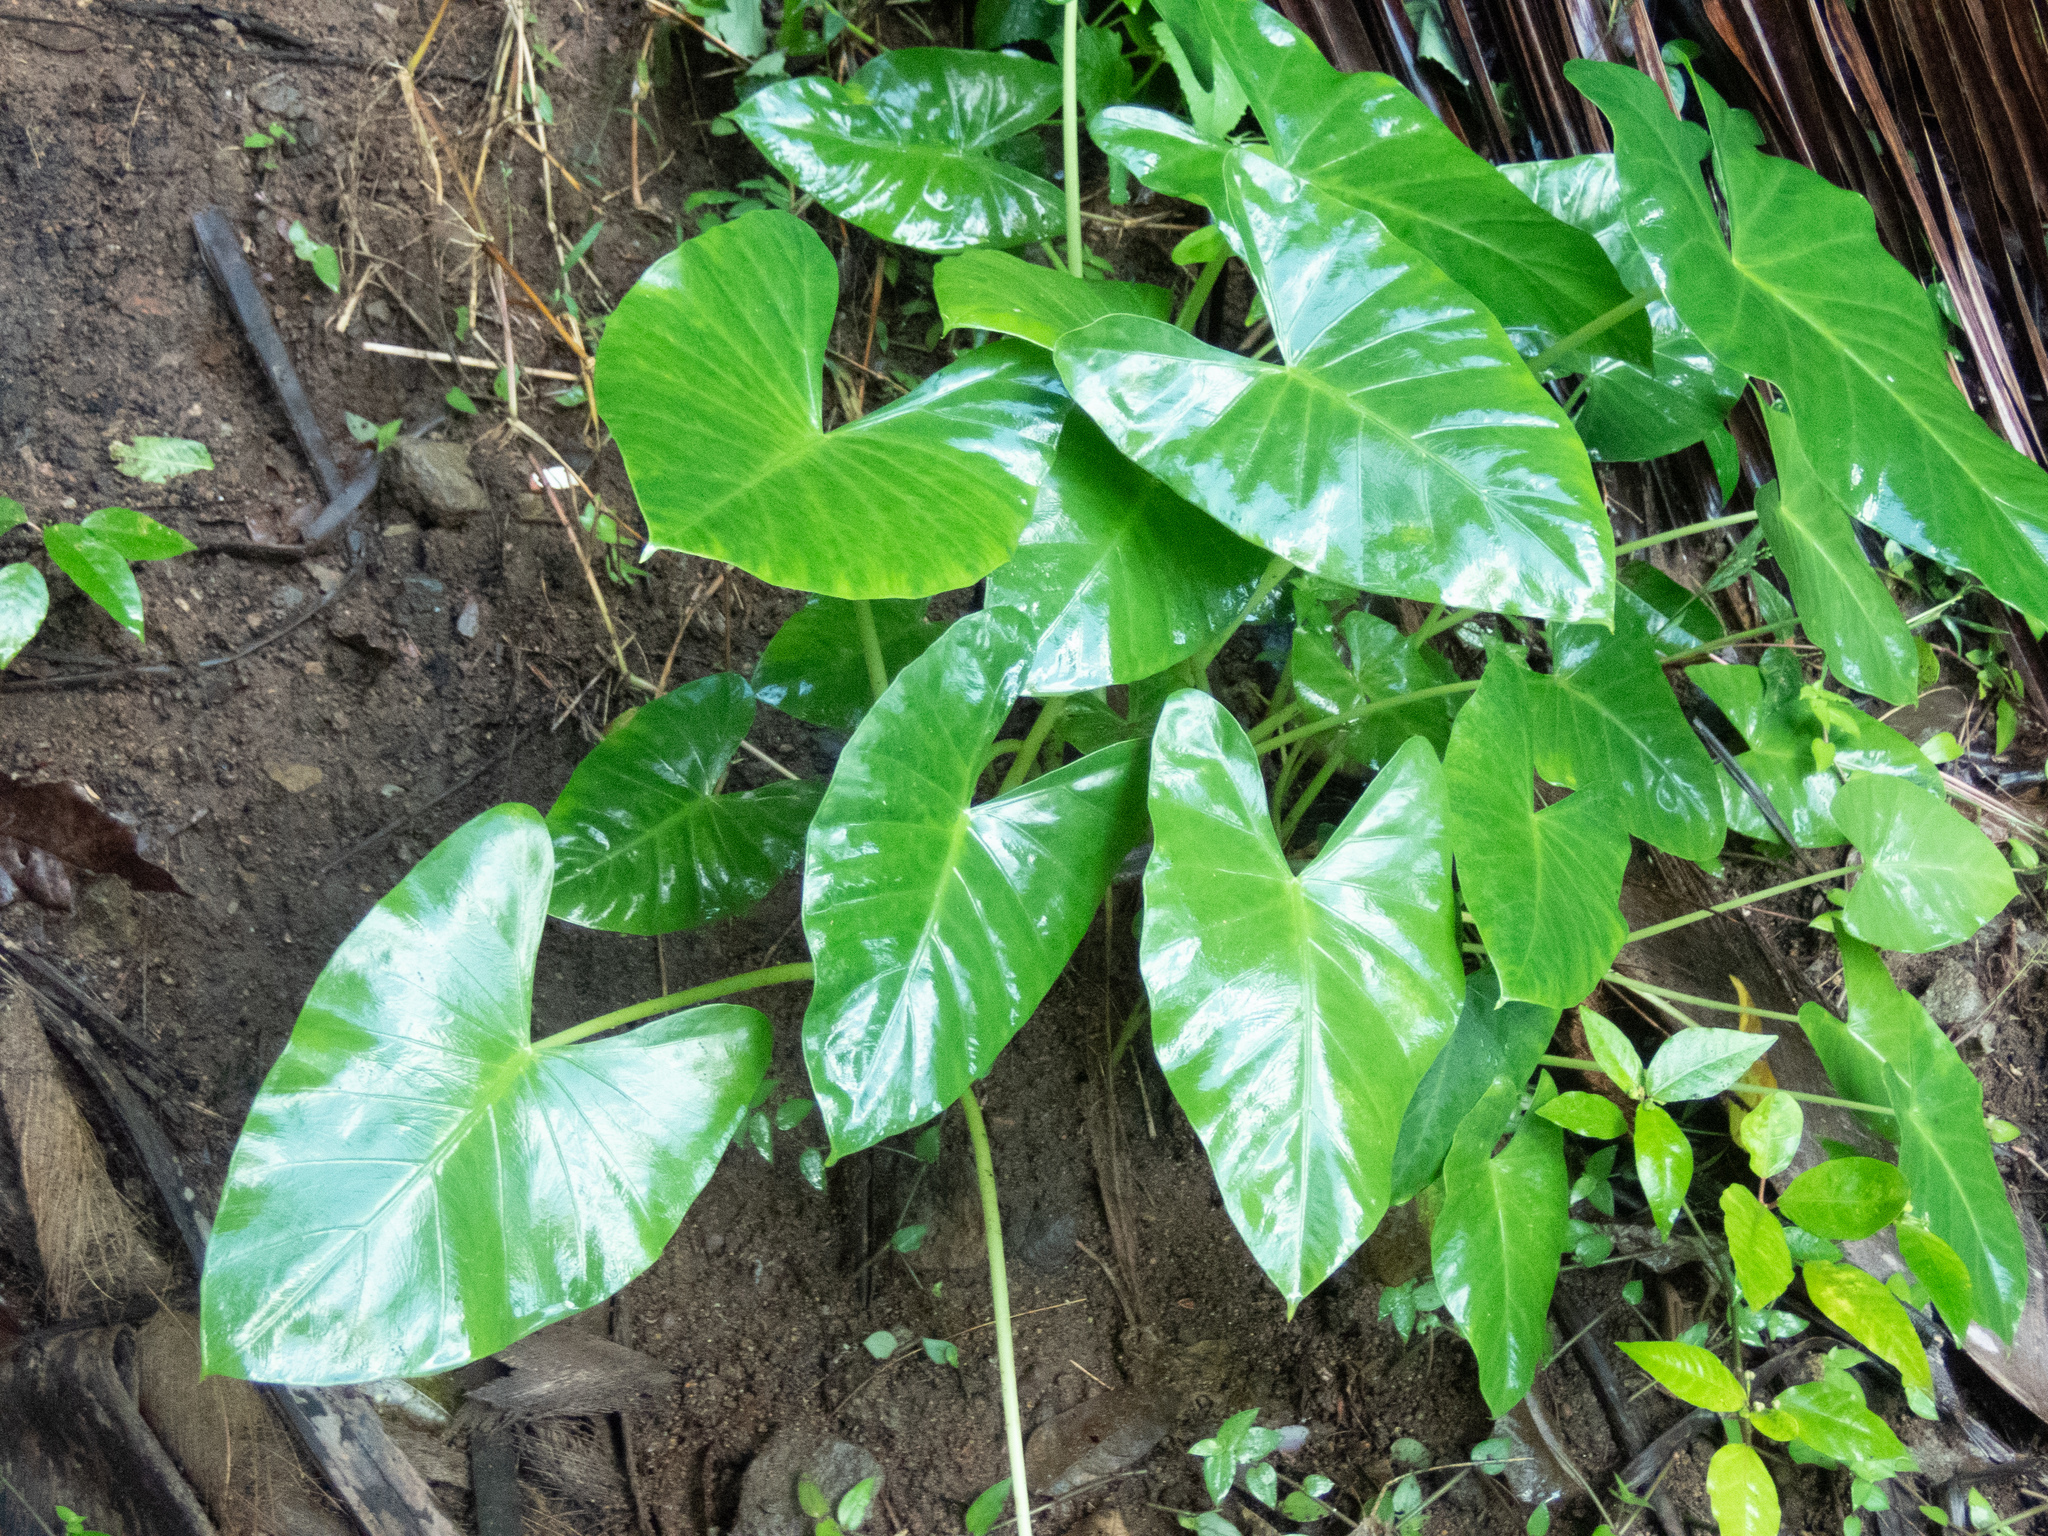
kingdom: Plantae
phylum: Tracheophyta
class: Liliopsida
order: Alismatales
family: Araceae
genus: Alocasia
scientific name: Alocasia macrorrhizos
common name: Giant taro
